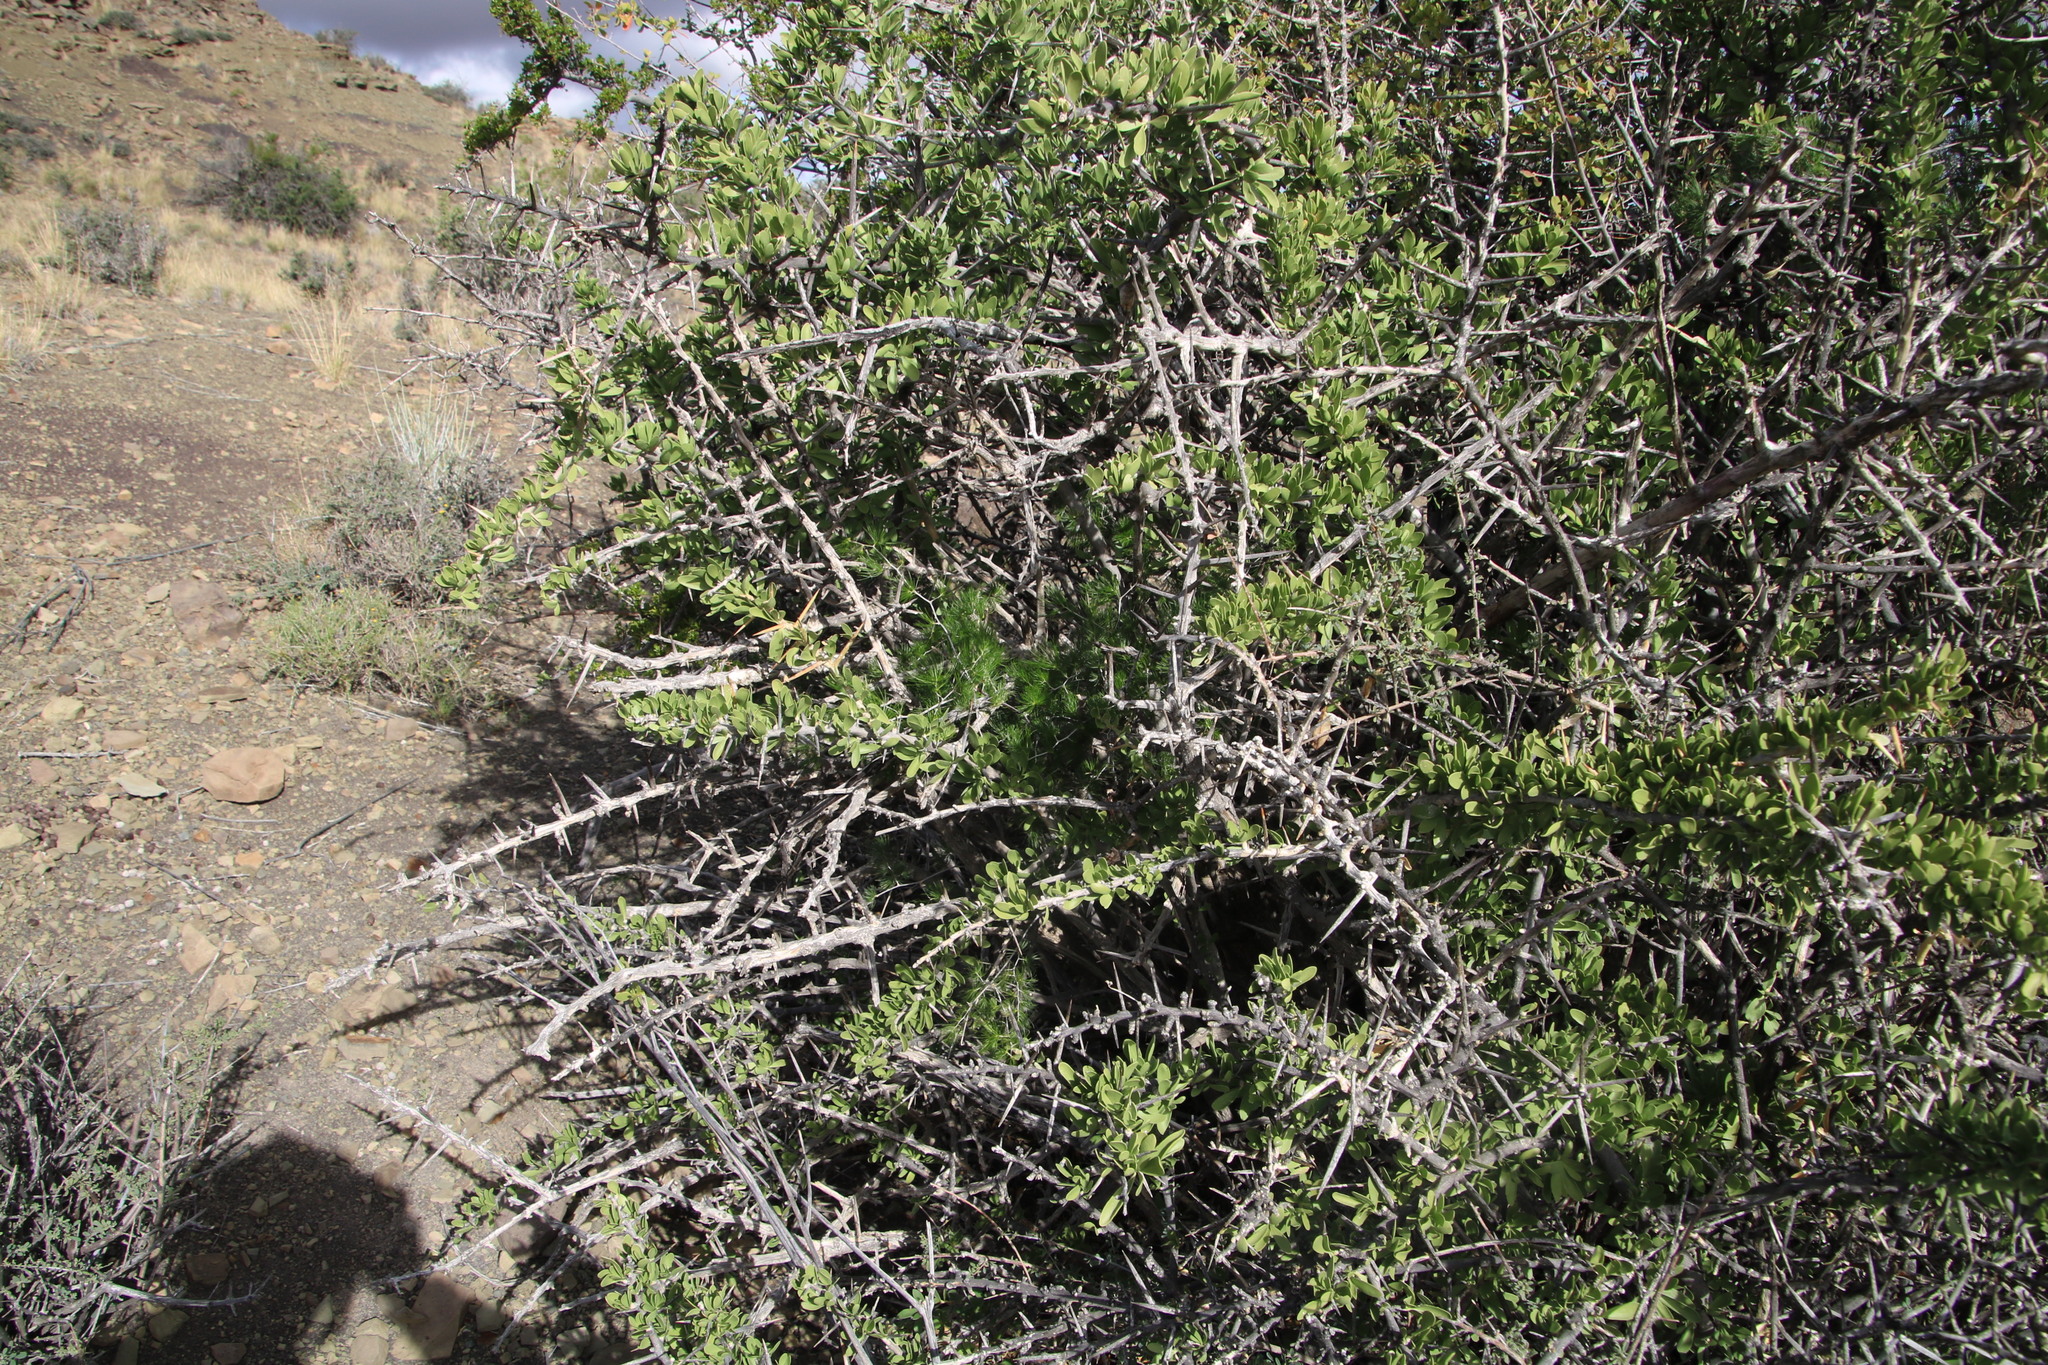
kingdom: Plantae
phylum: Tracheophyta
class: Liliopsida
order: Asparagales
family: Asparagaceae
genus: Asparagus
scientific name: Asparagus retrofractus
